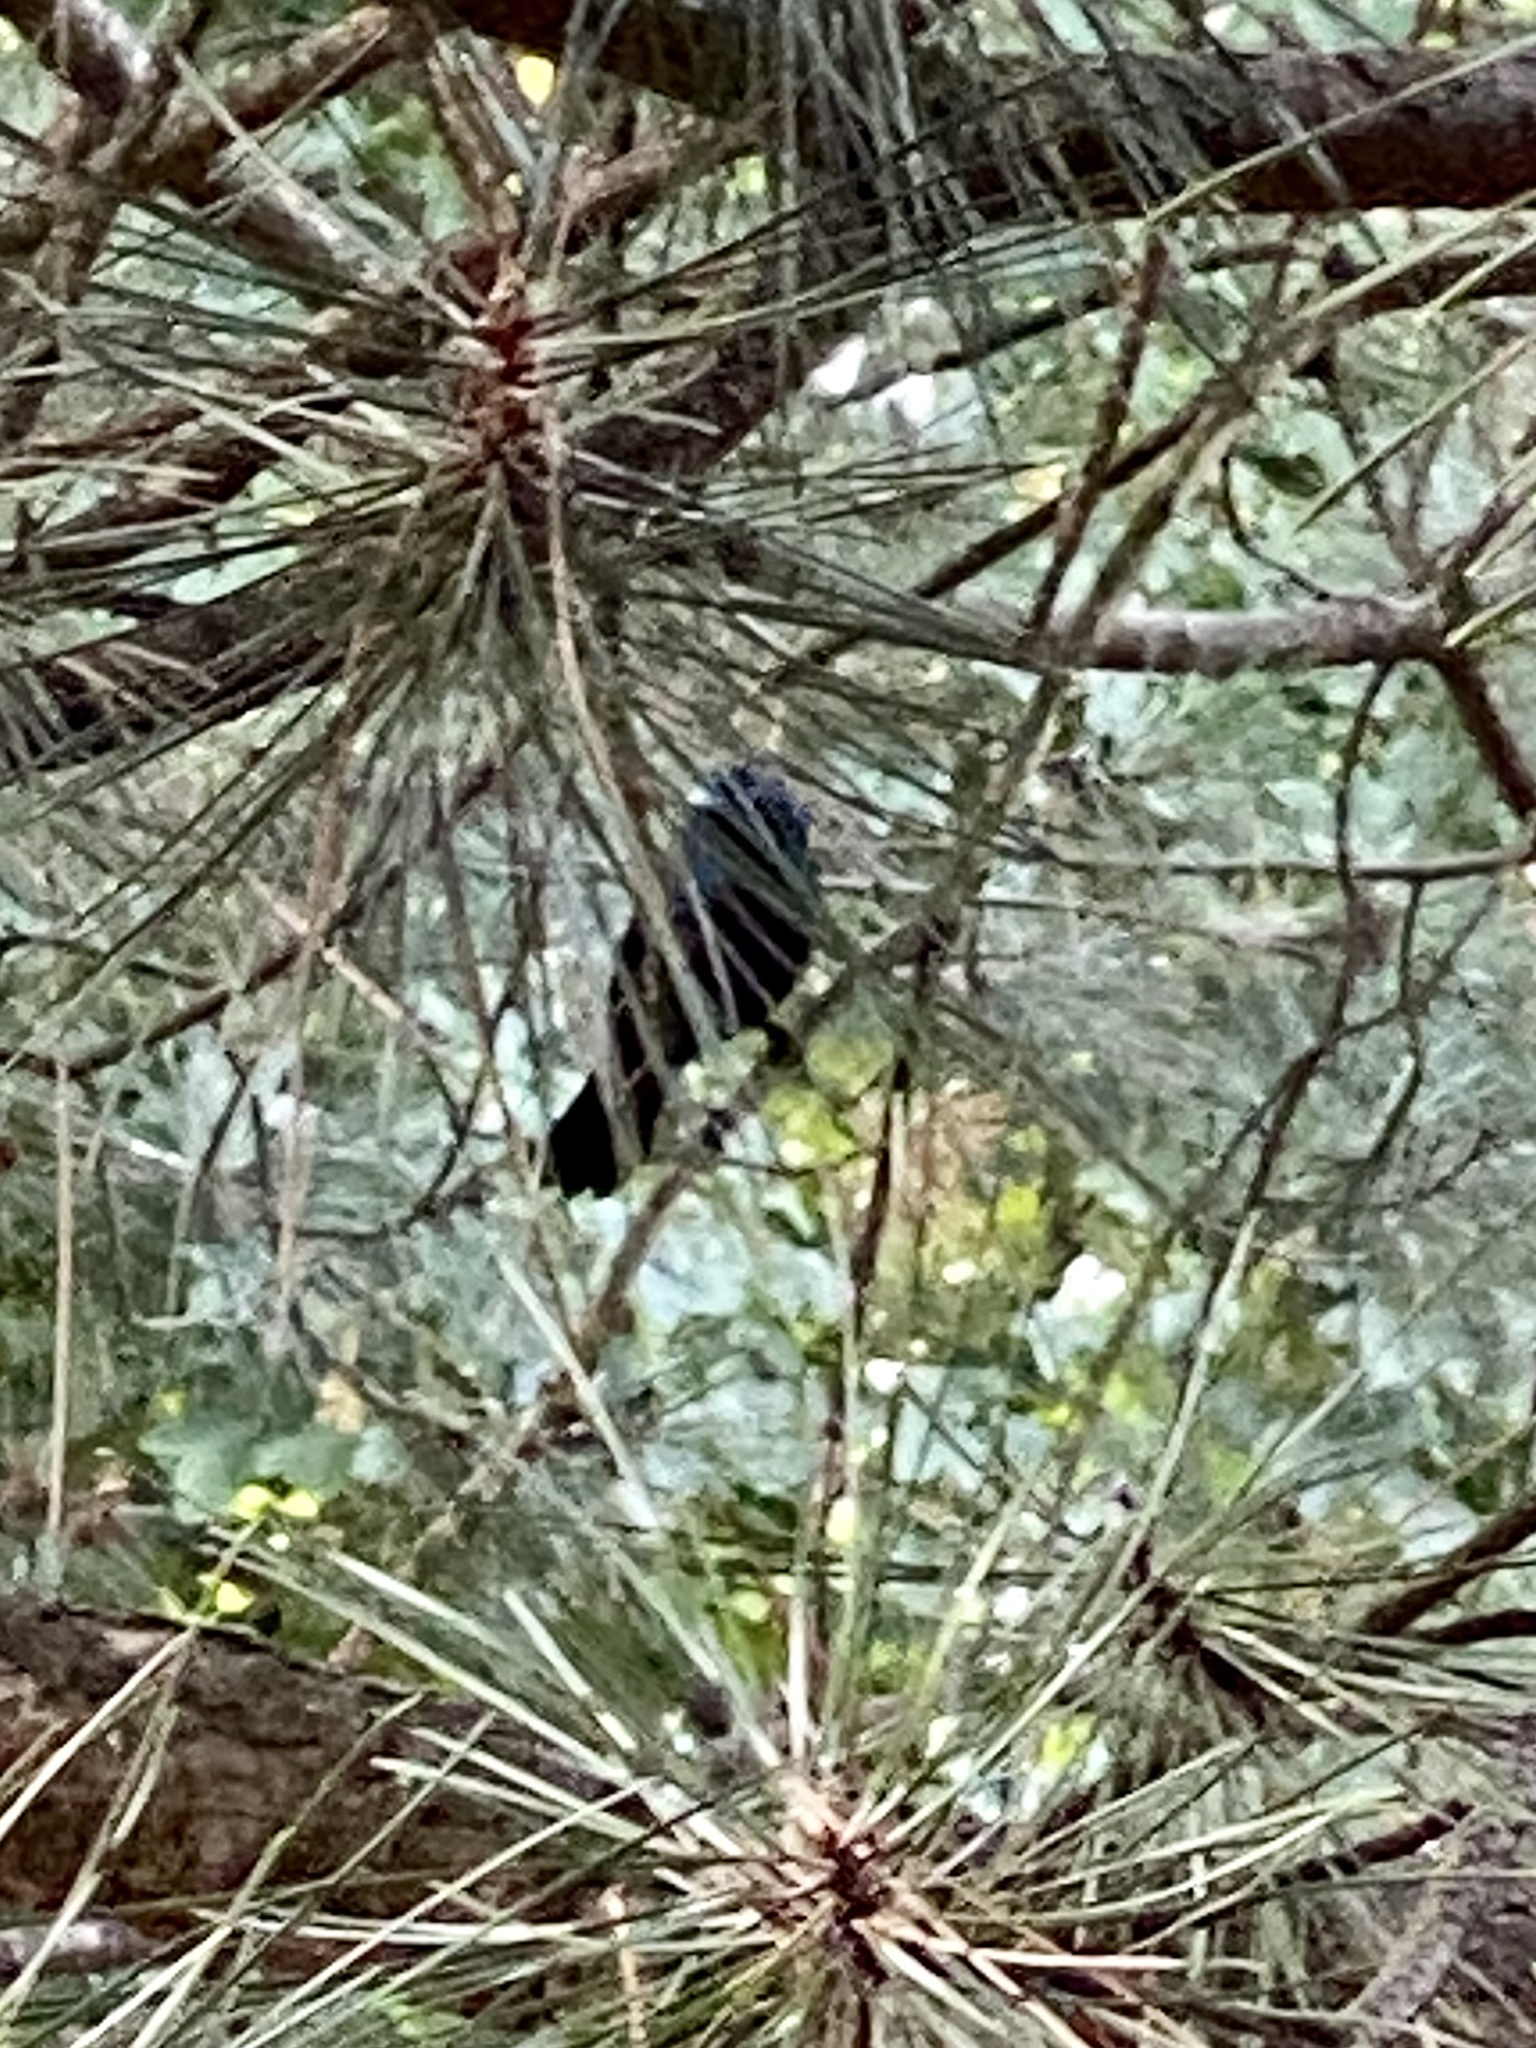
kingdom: Animalia
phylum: Chordata
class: Aves
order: Passeriformes
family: Icteridae
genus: Quiscalus
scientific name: Quiscalus quiscula
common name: Common grackle
